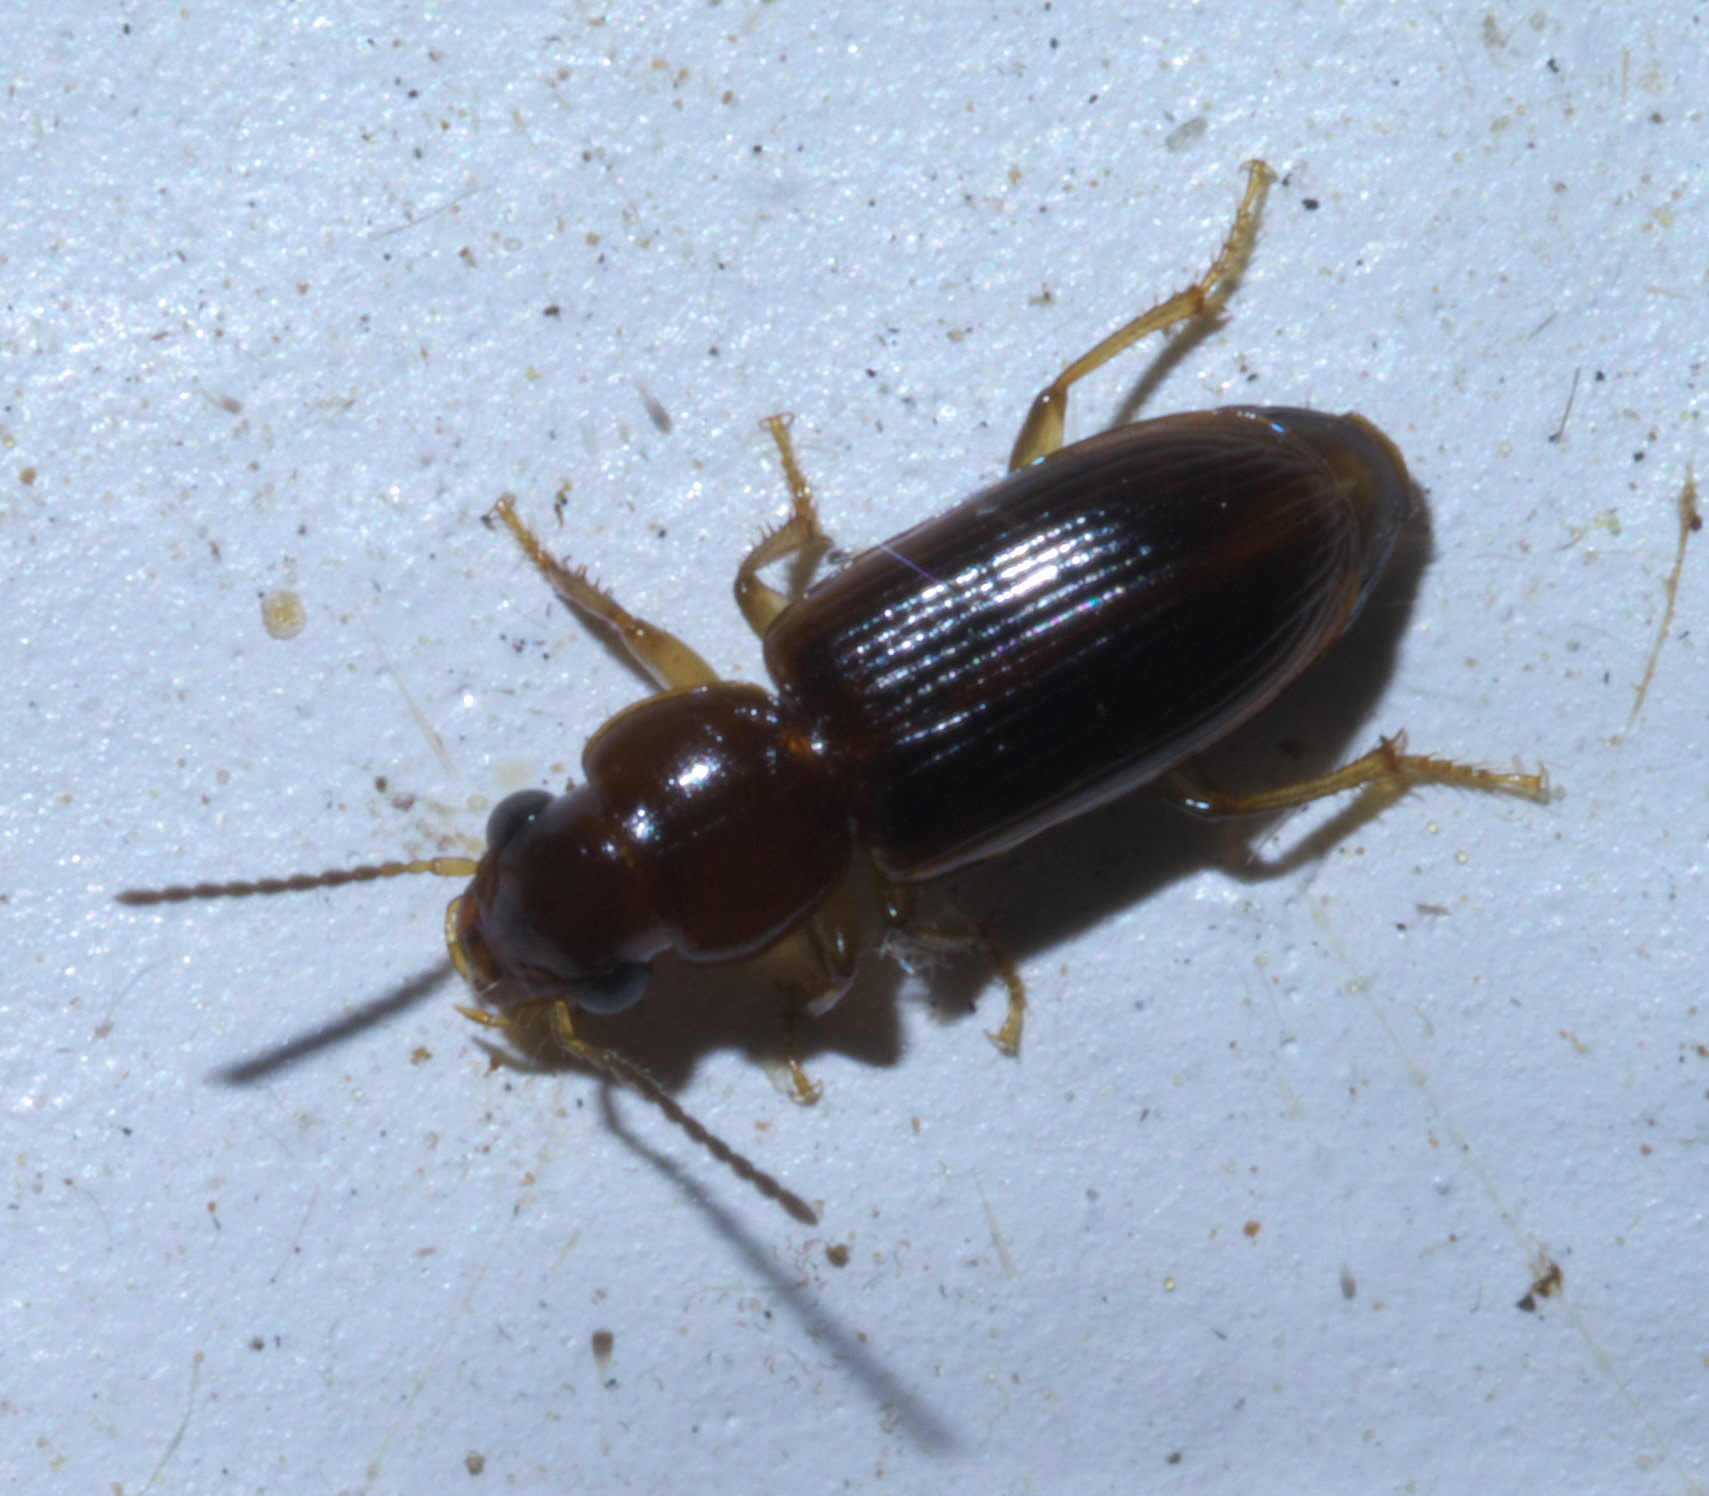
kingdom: Animalia
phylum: Arthropoda
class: Insecta
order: Coleoptera
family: Carabidae
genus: Acupalpus
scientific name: Acupalpus indistinctus
